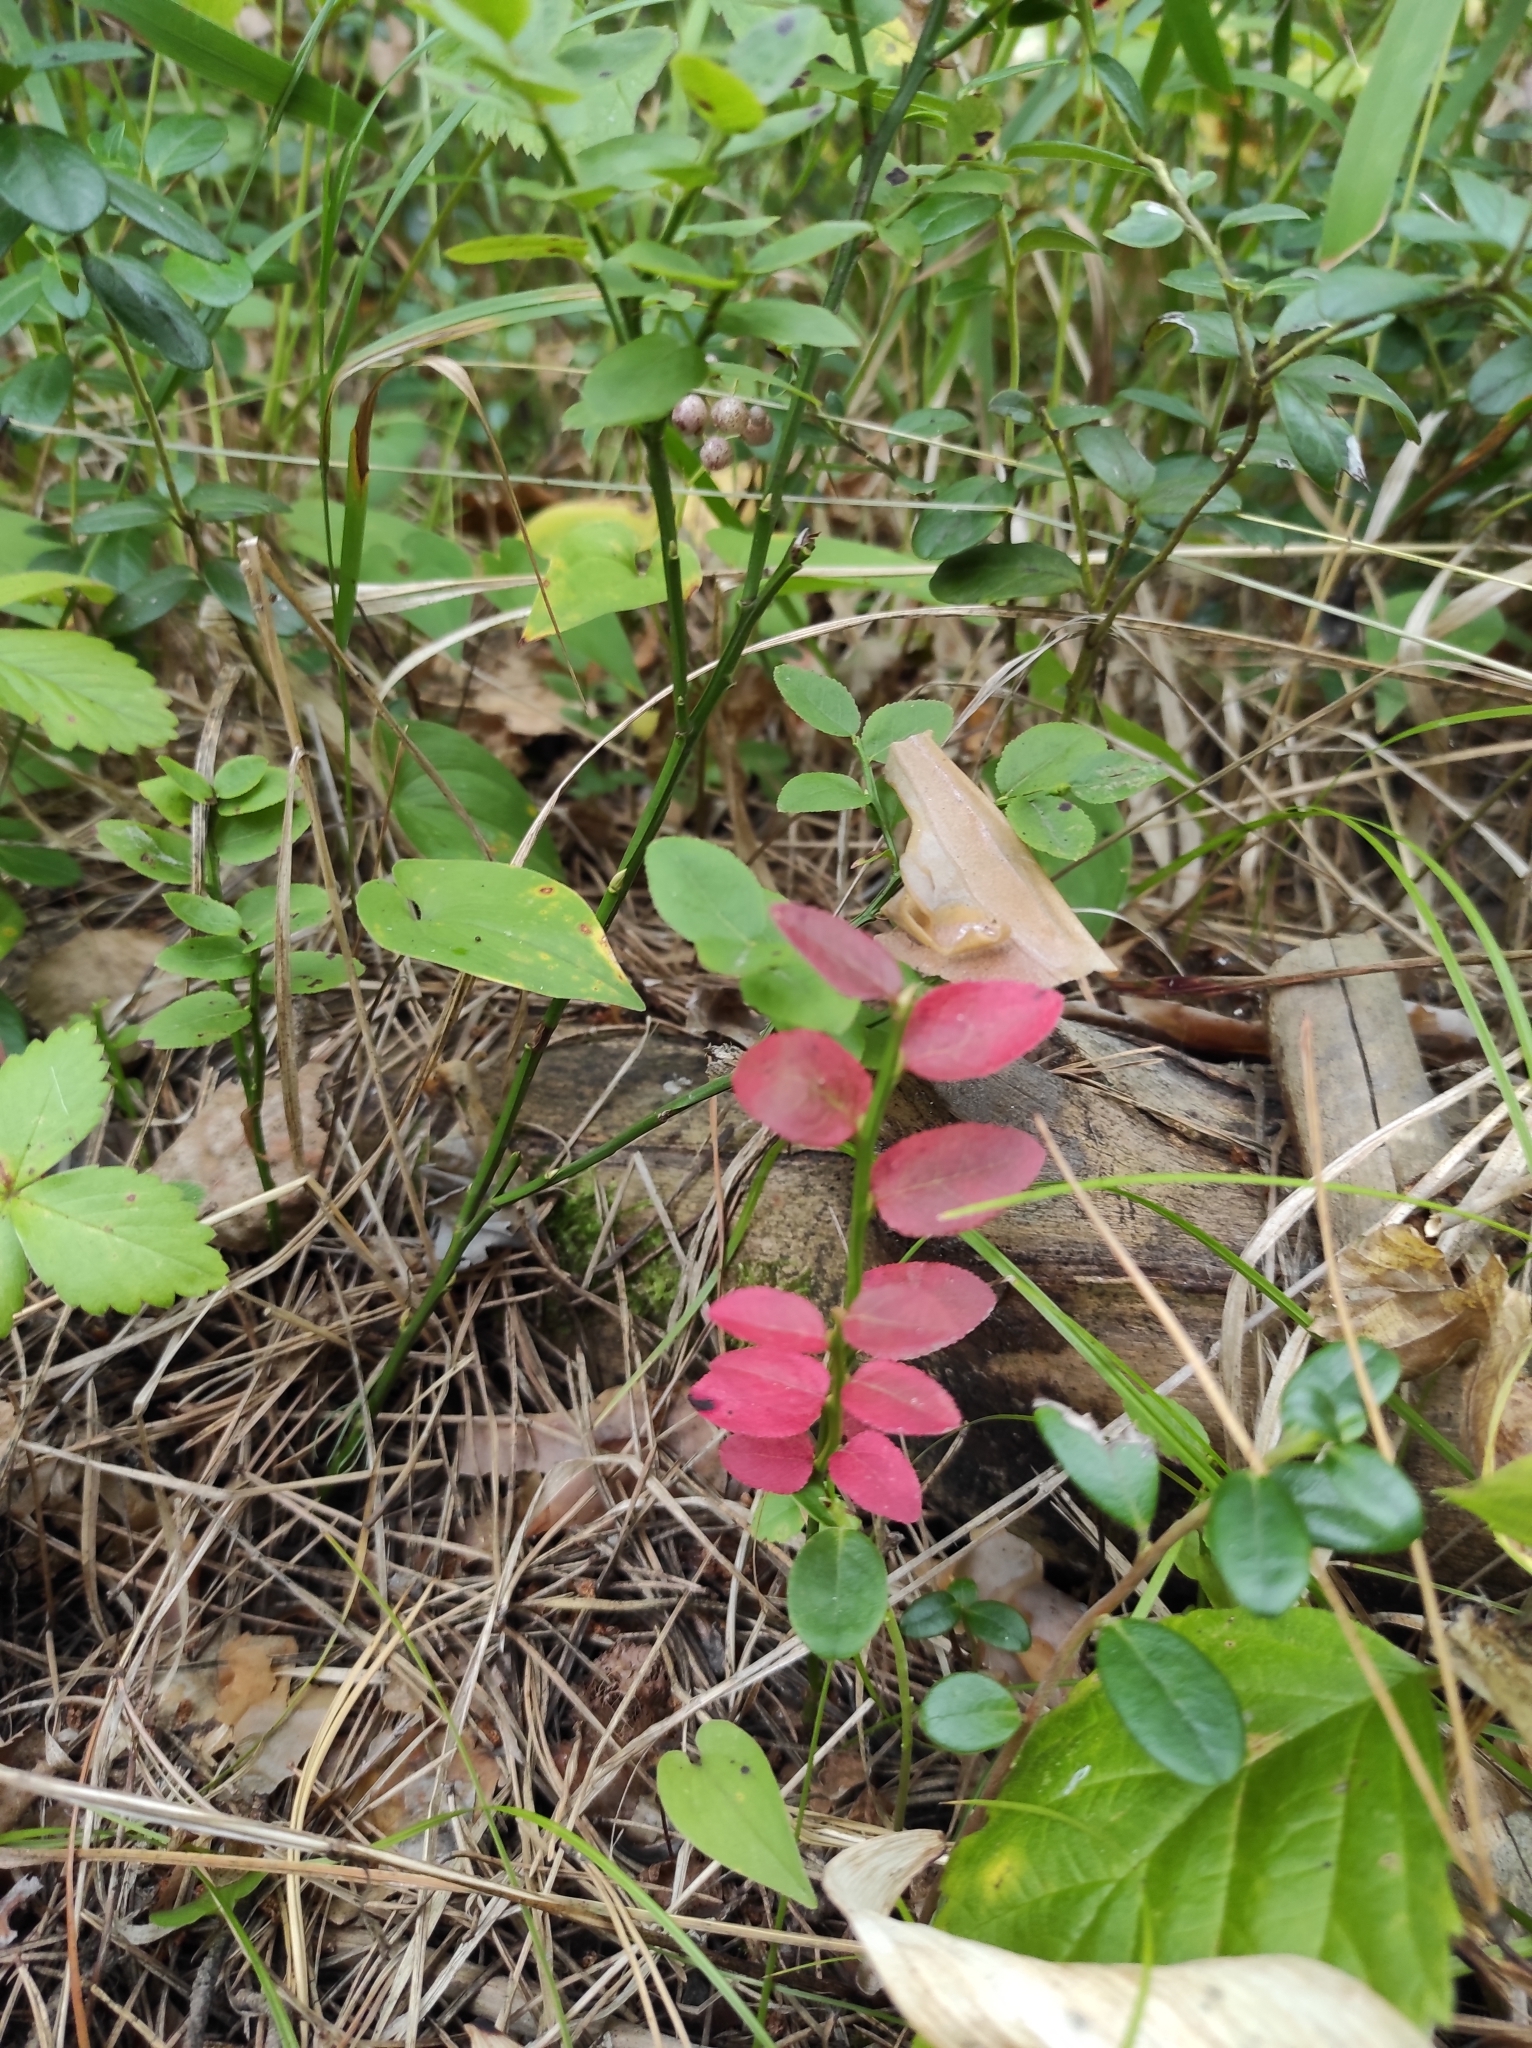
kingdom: Plantae
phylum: Tracheophyta
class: Magnoliopsida
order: Ericales
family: Ericaceae
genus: Vaccinium
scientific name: Vaccinium myrtillus
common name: Bilberry
